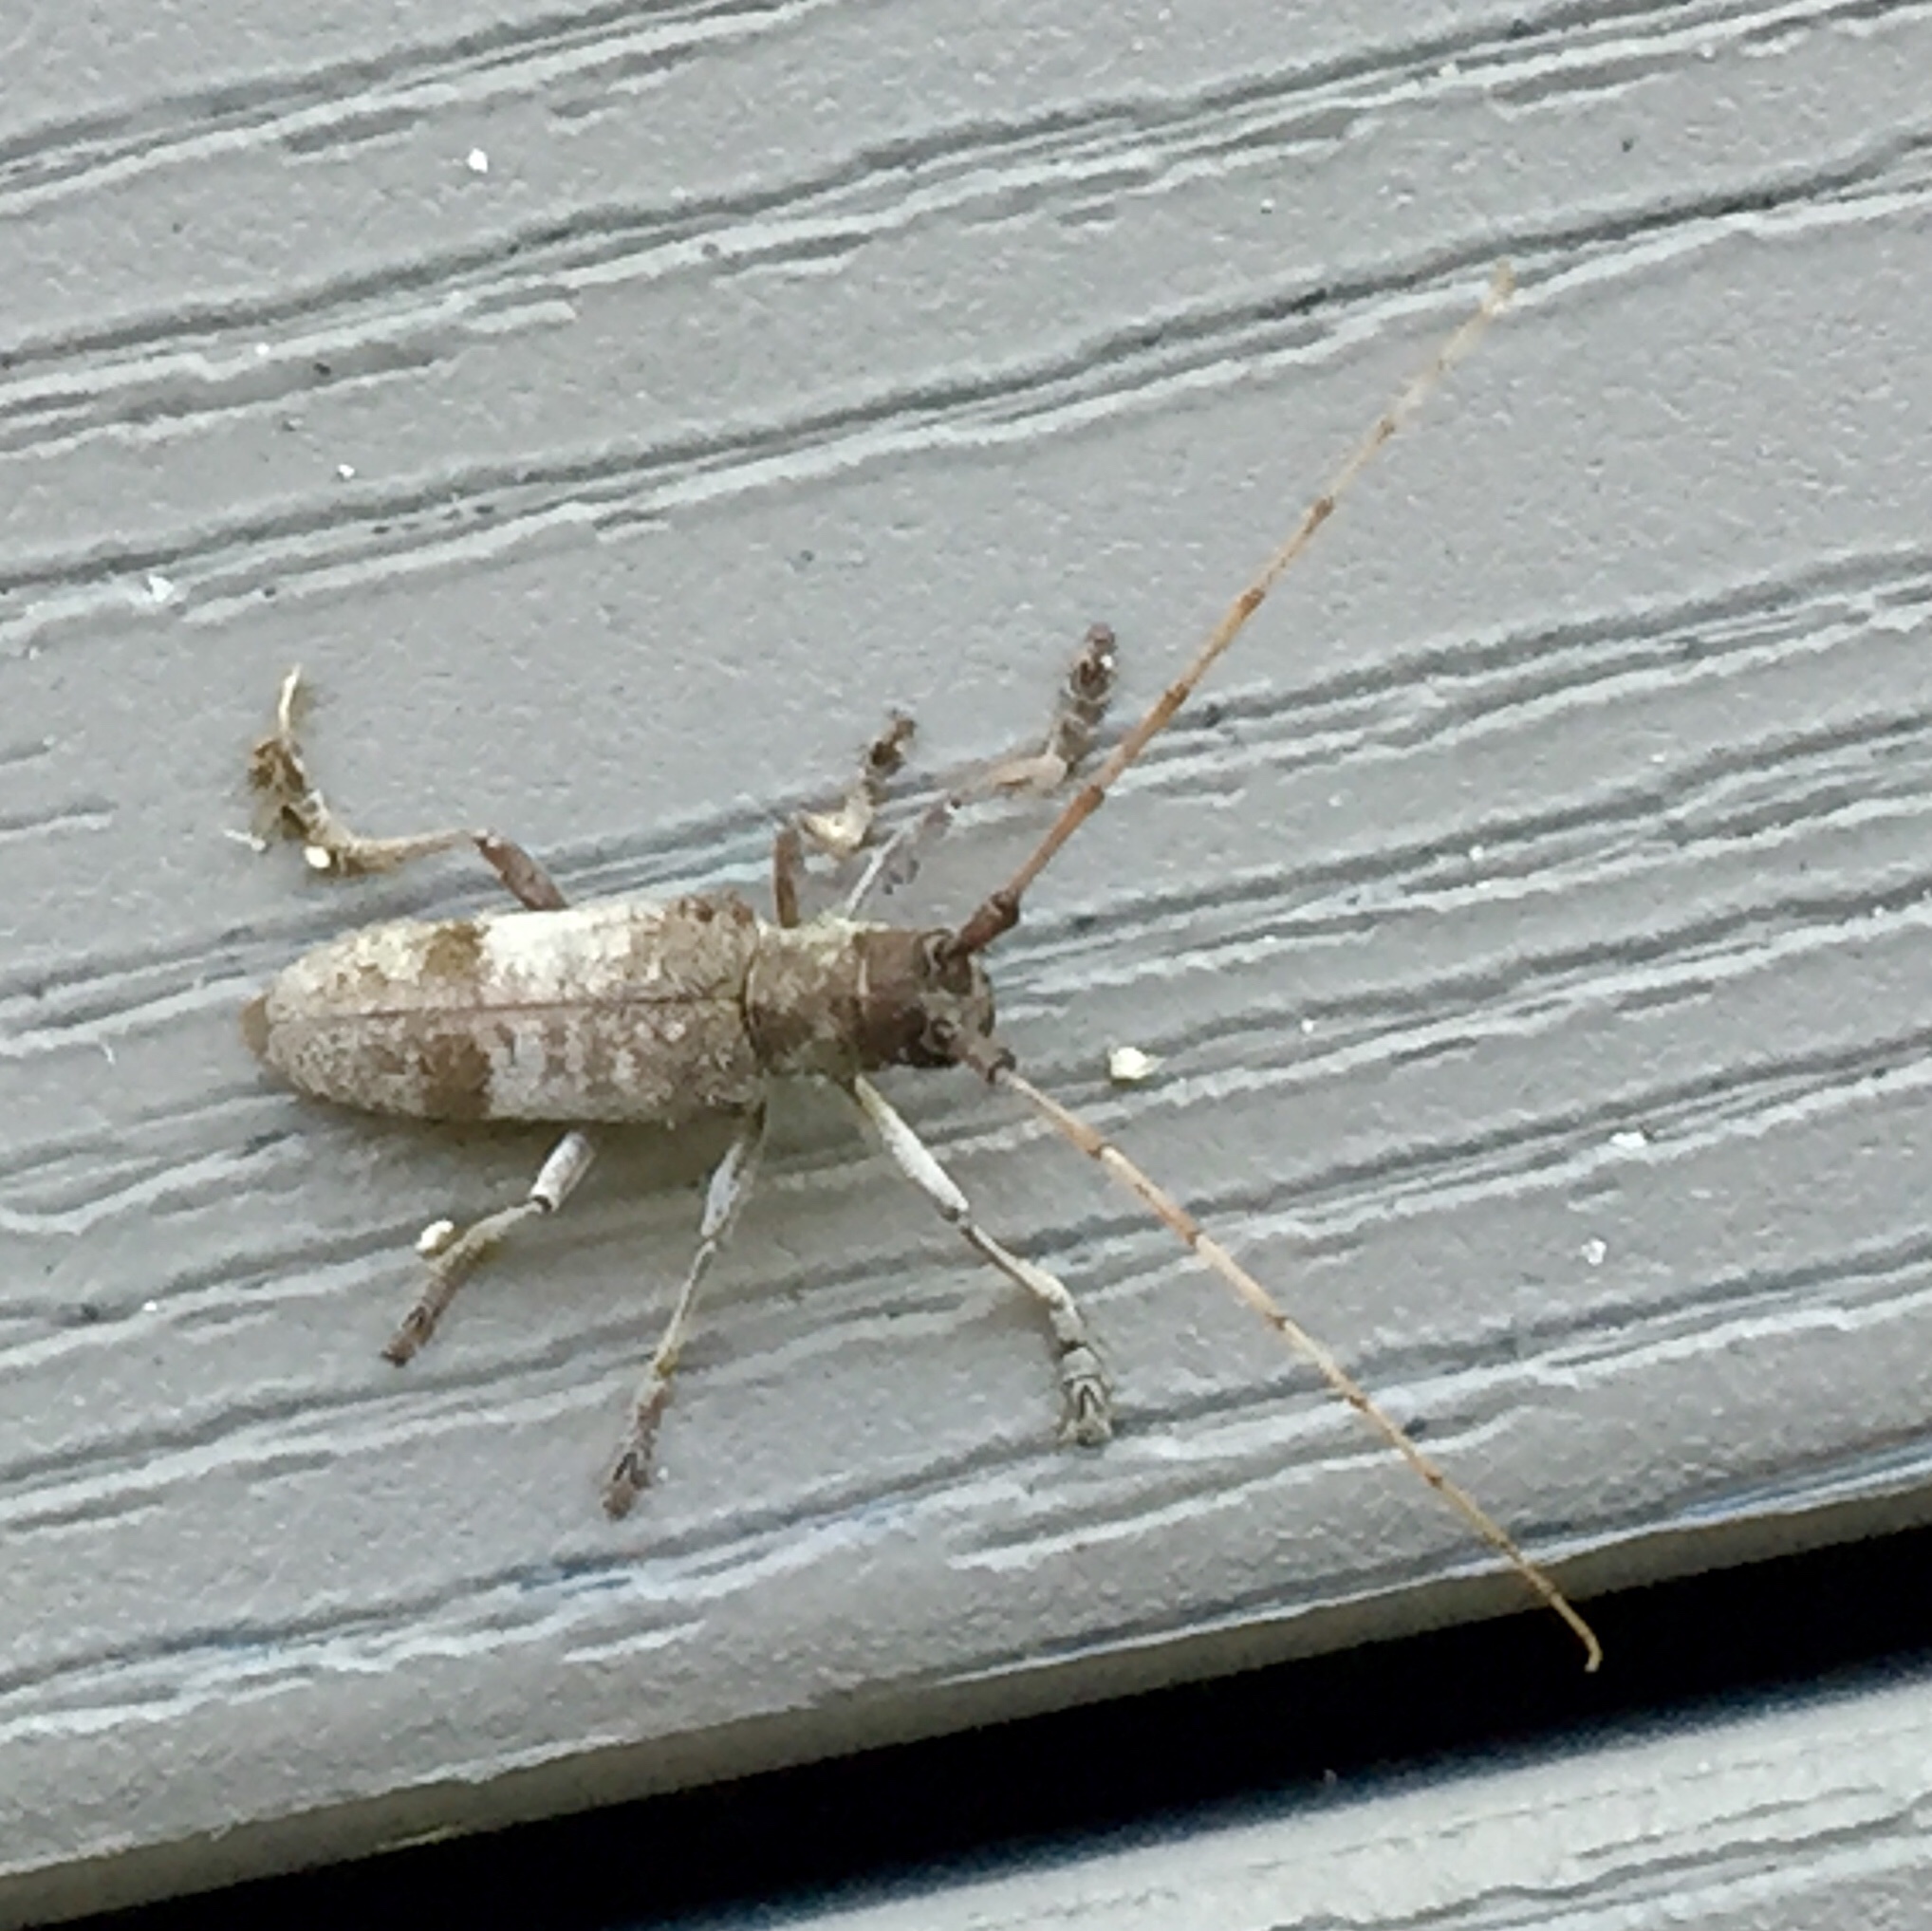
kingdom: Animalia
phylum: Arthropoda
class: Insecta
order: Coleoptera
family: Cerambycidae
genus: Goes
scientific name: Goes pulverulentus
